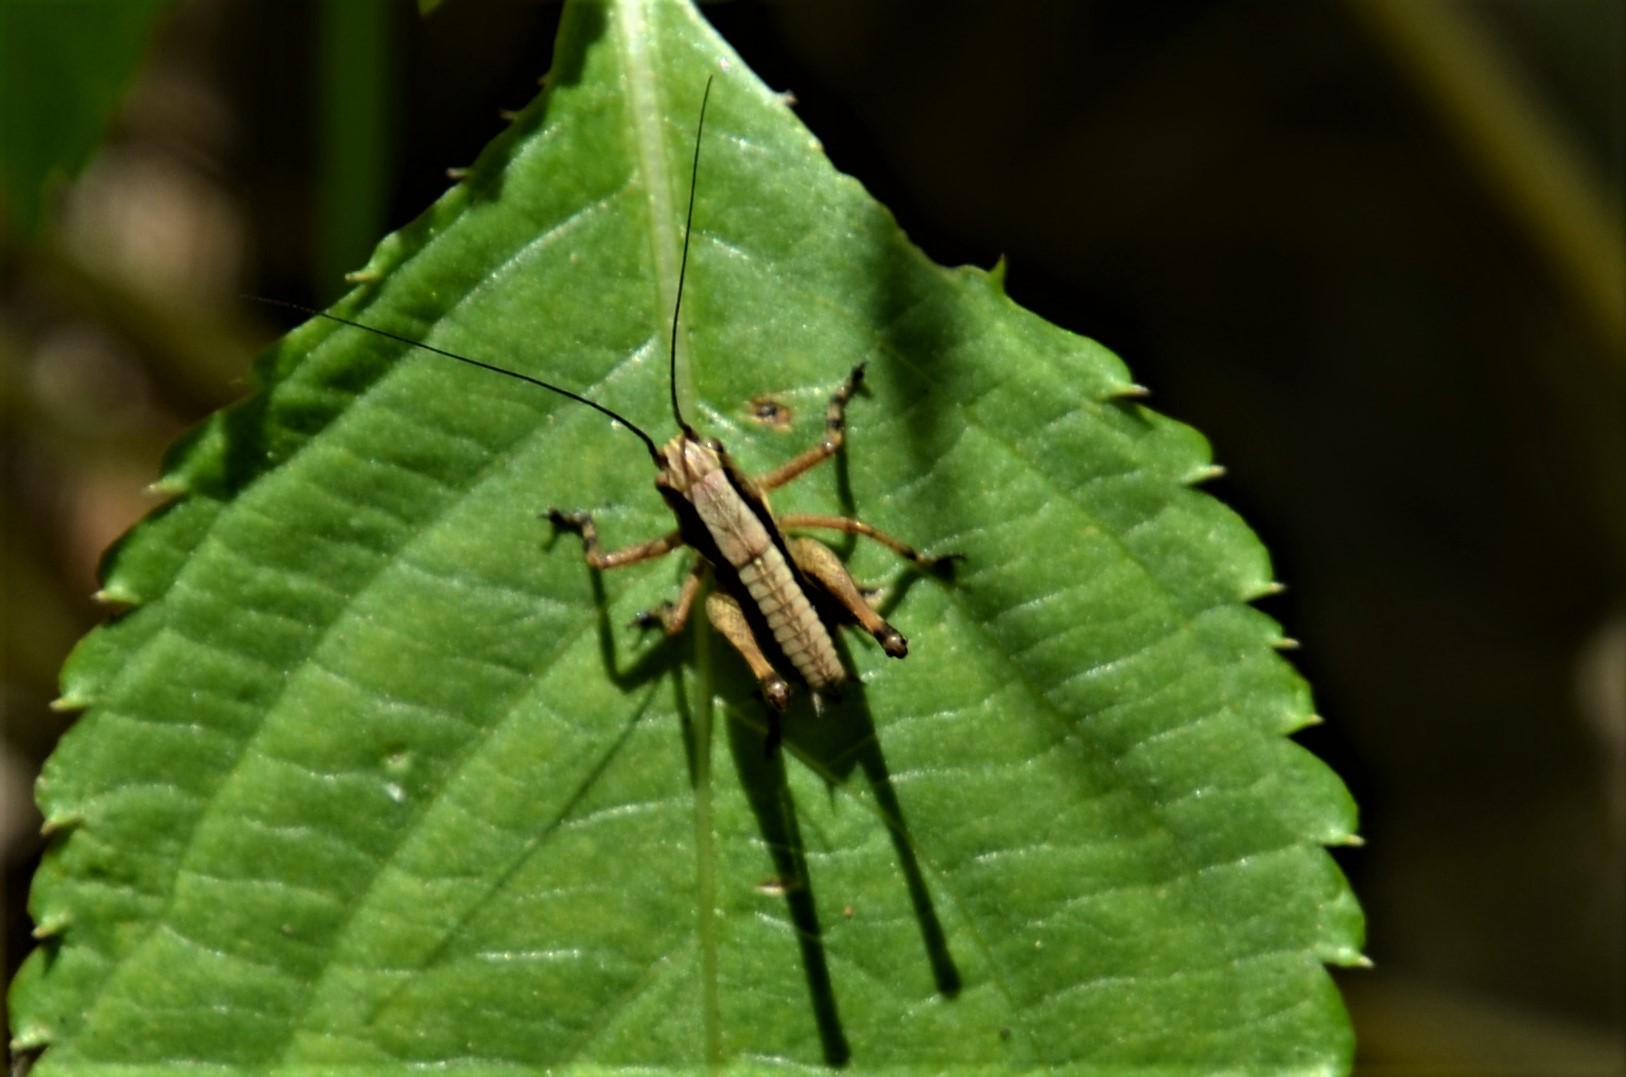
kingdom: Animalia
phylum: Arthropoda
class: Insecta
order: Orthoptera
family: Tettigoniidae
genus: Pholidoptera
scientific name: Pholidoptera griseoaptera
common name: Dark bush-cricket
